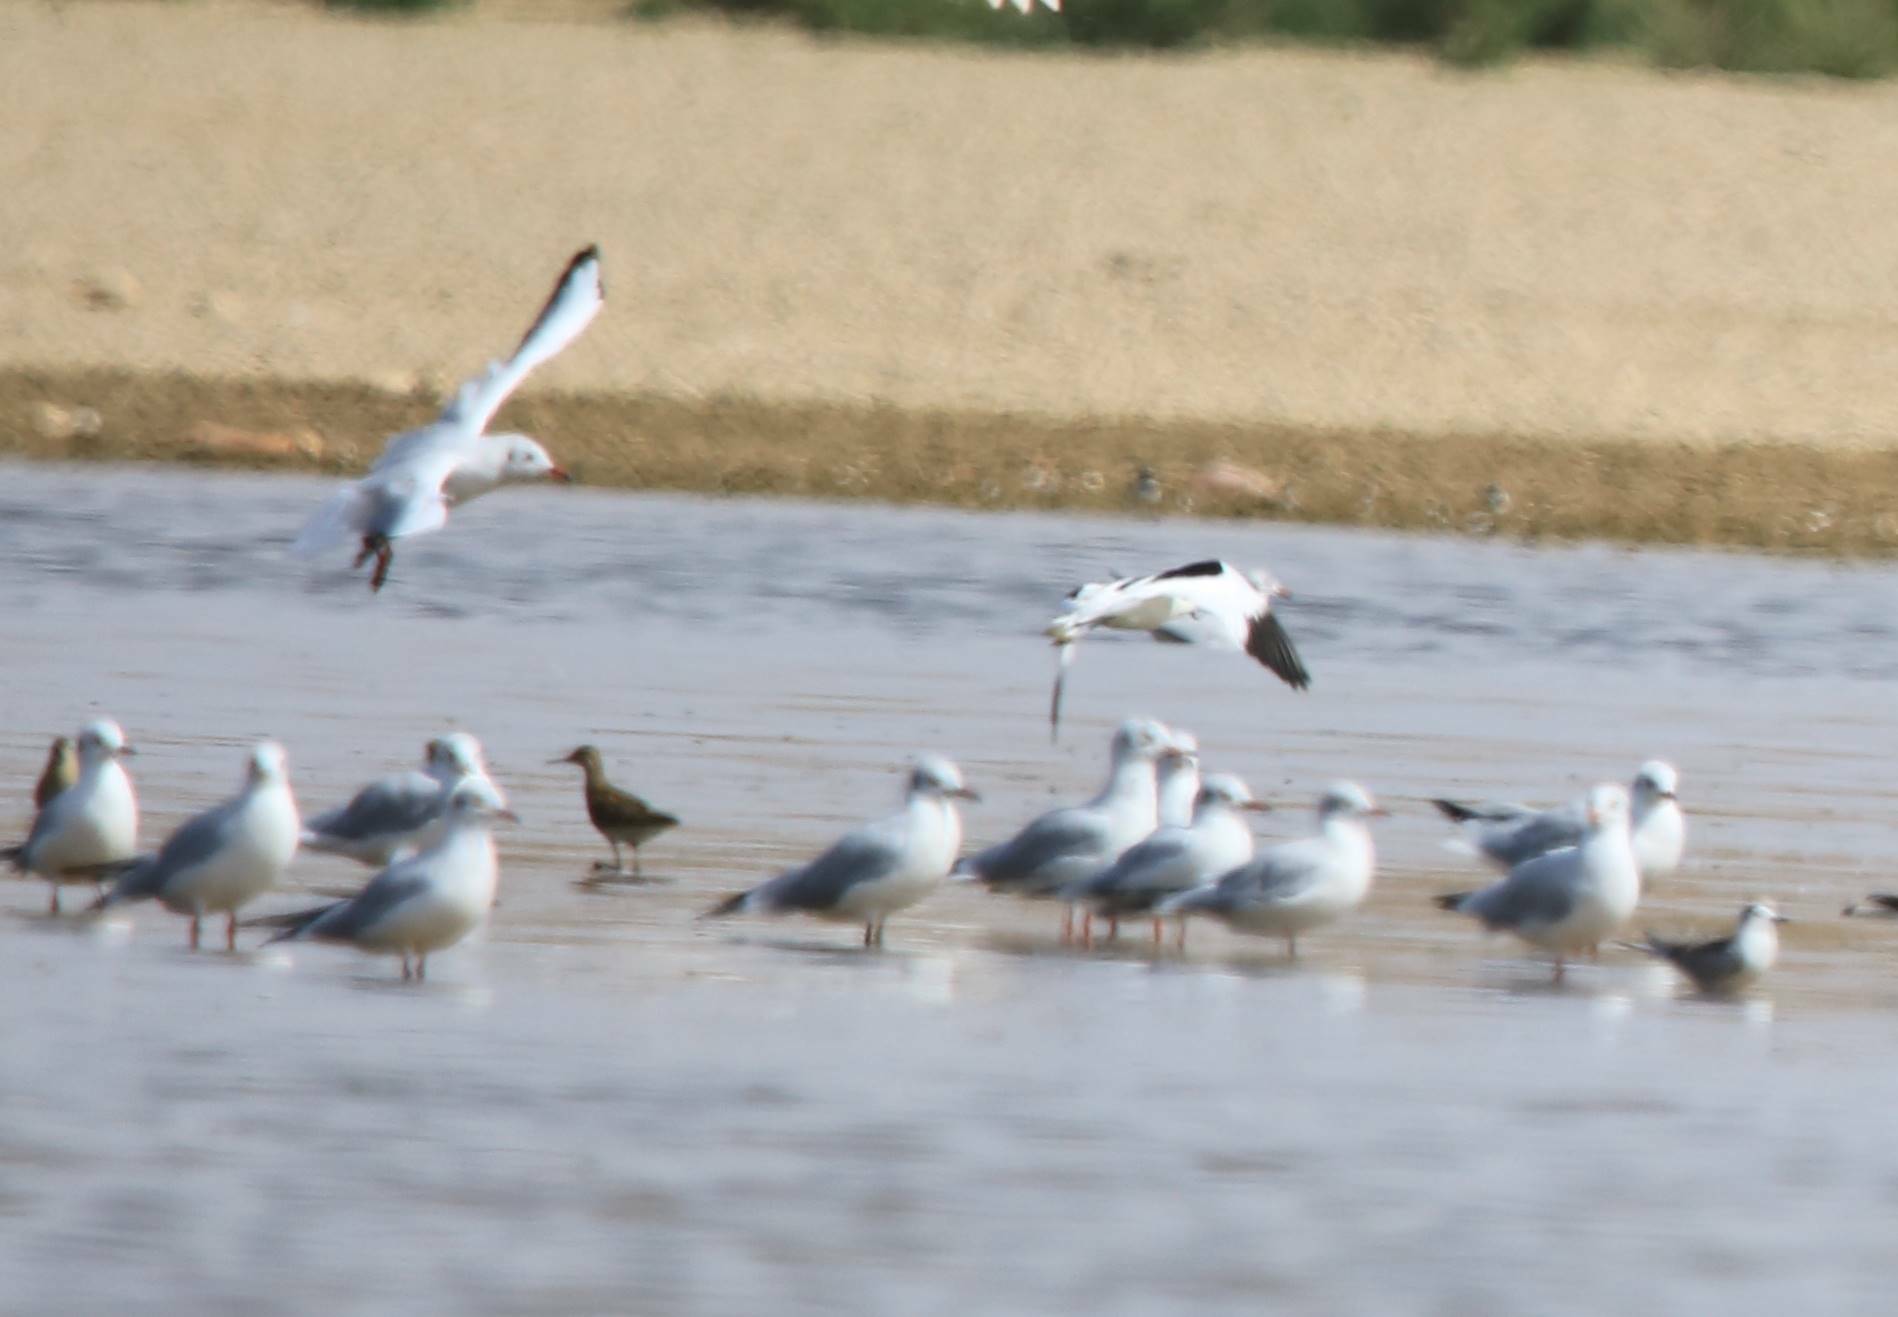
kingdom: Animalia
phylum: Chordata
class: Aves
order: Charadriiformes
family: Laridae
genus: Chroicocephalus
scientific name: Chroicocephalus ridibundus
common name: Black-headed gull
